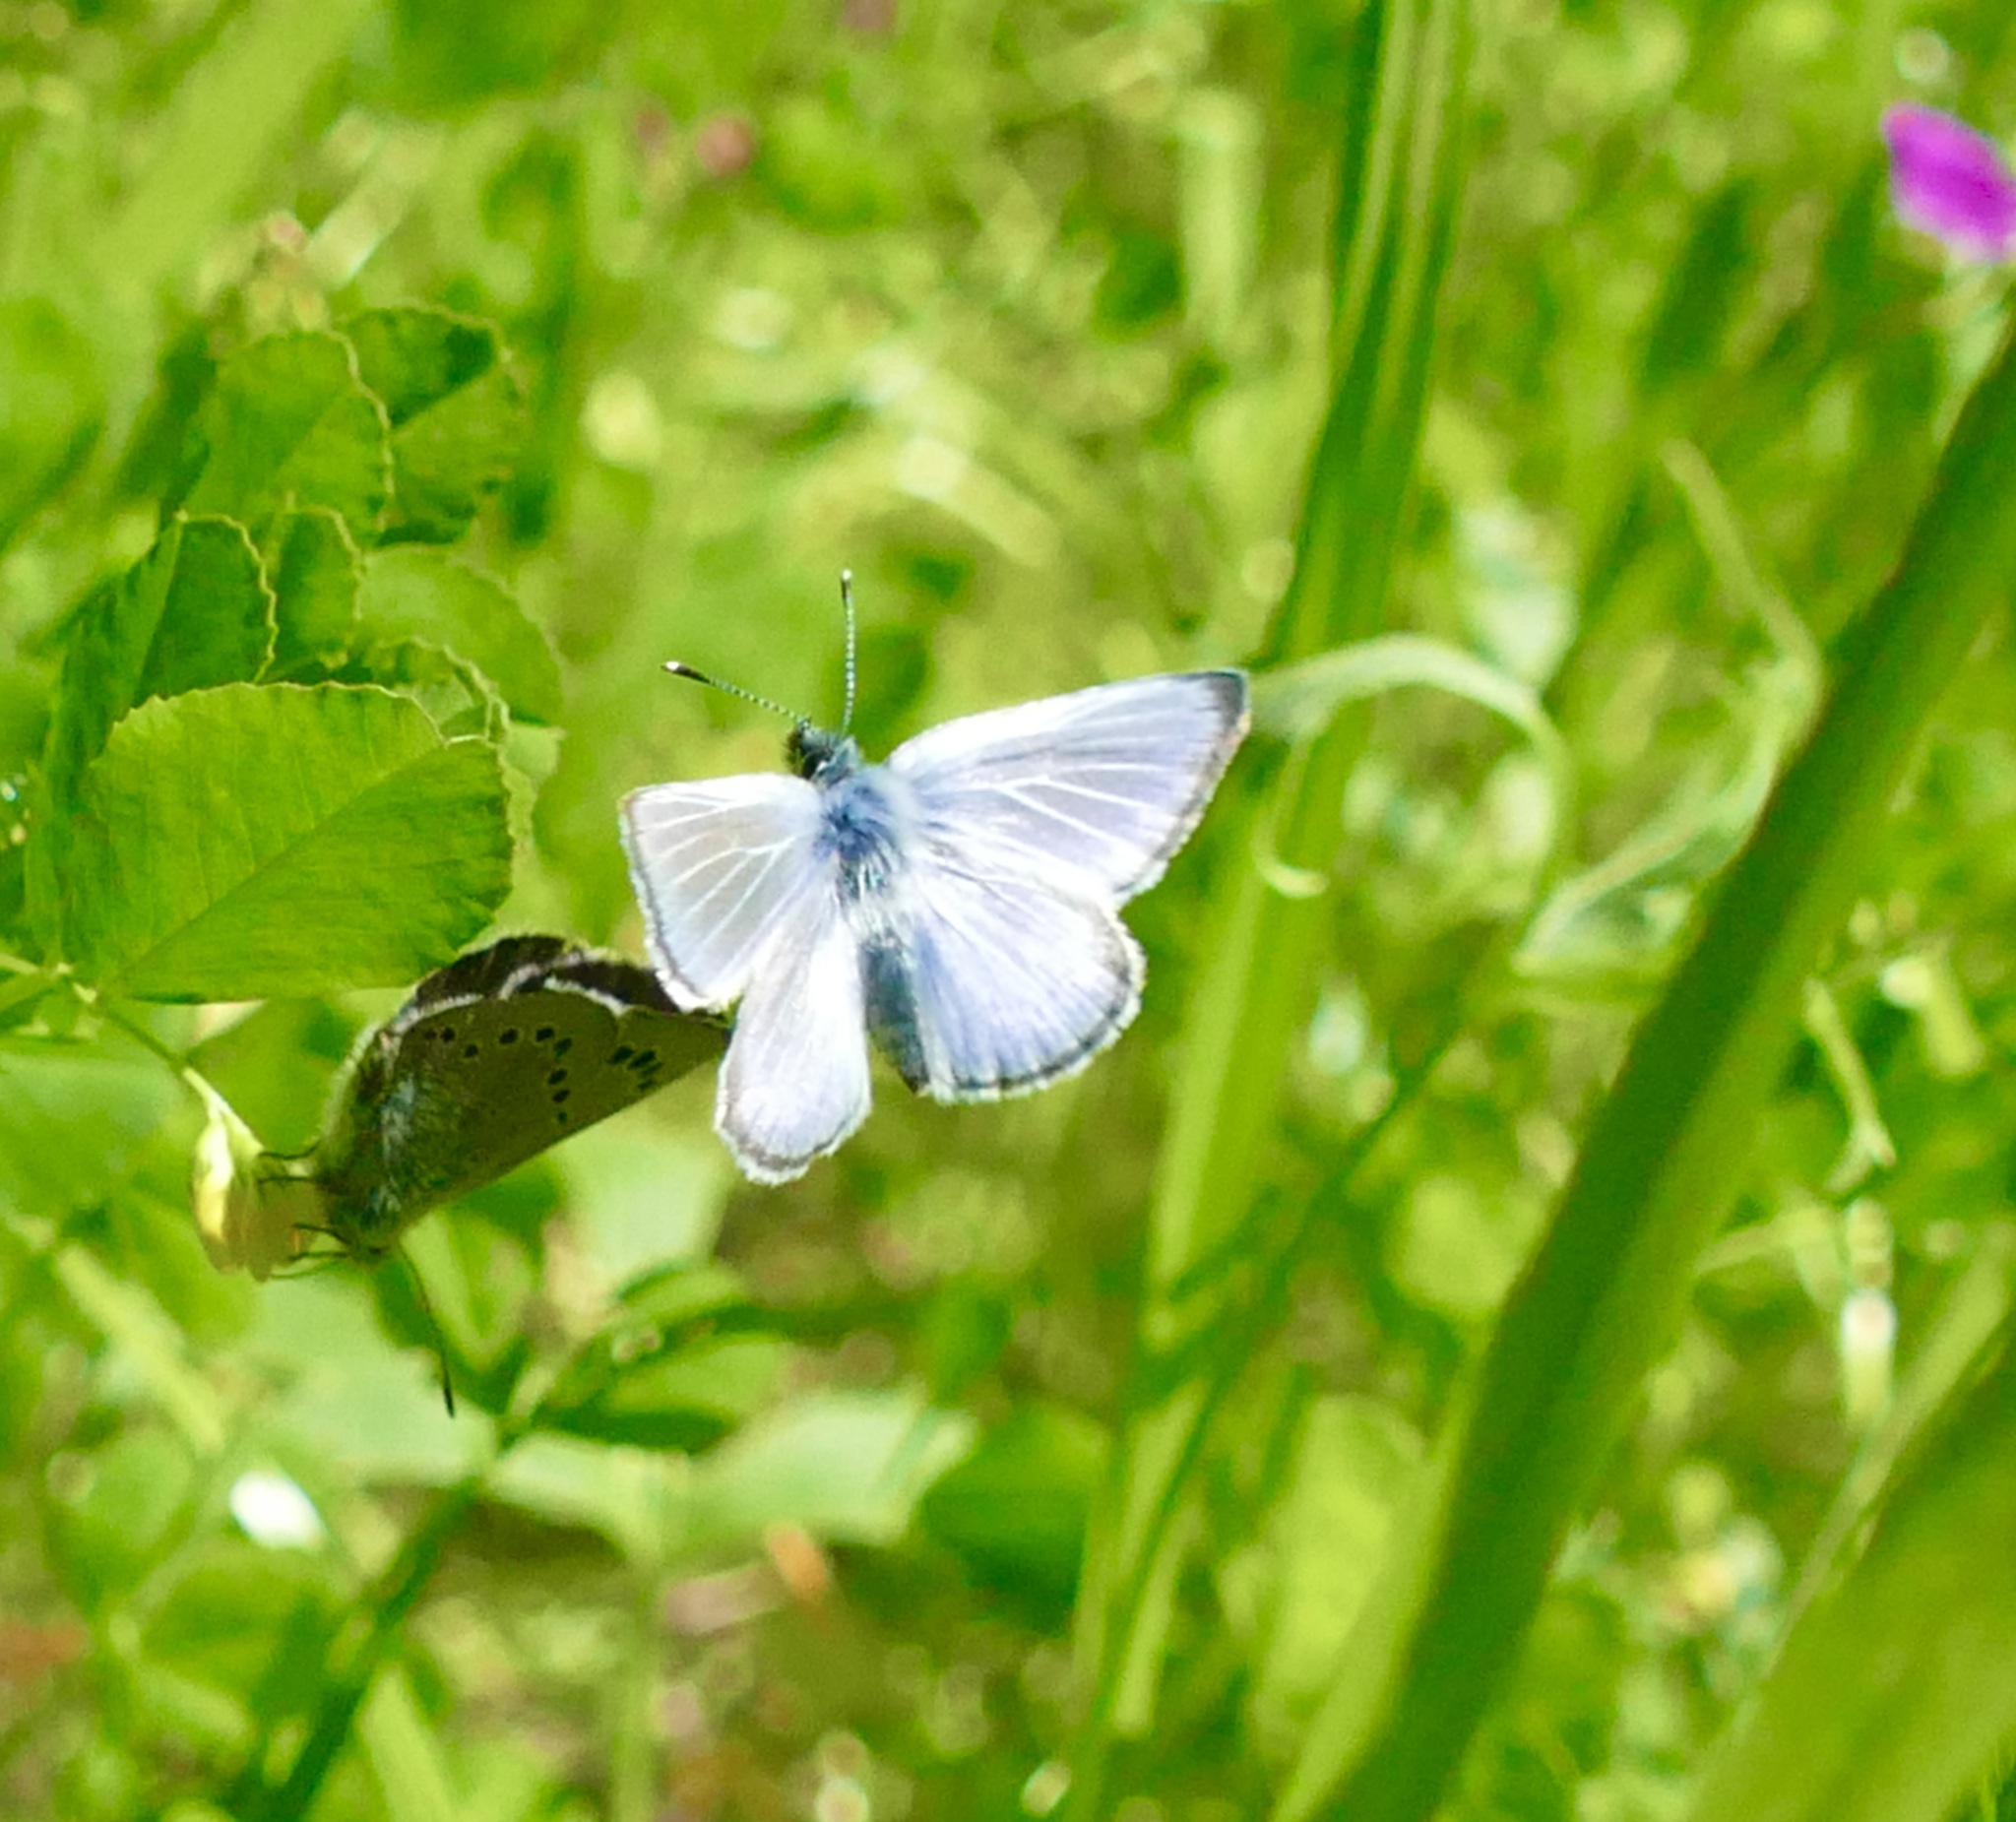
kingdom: Animalia
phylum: Arthropoda
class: Insecta
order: Lepidoptera
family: Lycaenidae
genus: Glaucopsyche
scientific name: Glaucopsyche lygdamus
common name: Silvery blue
